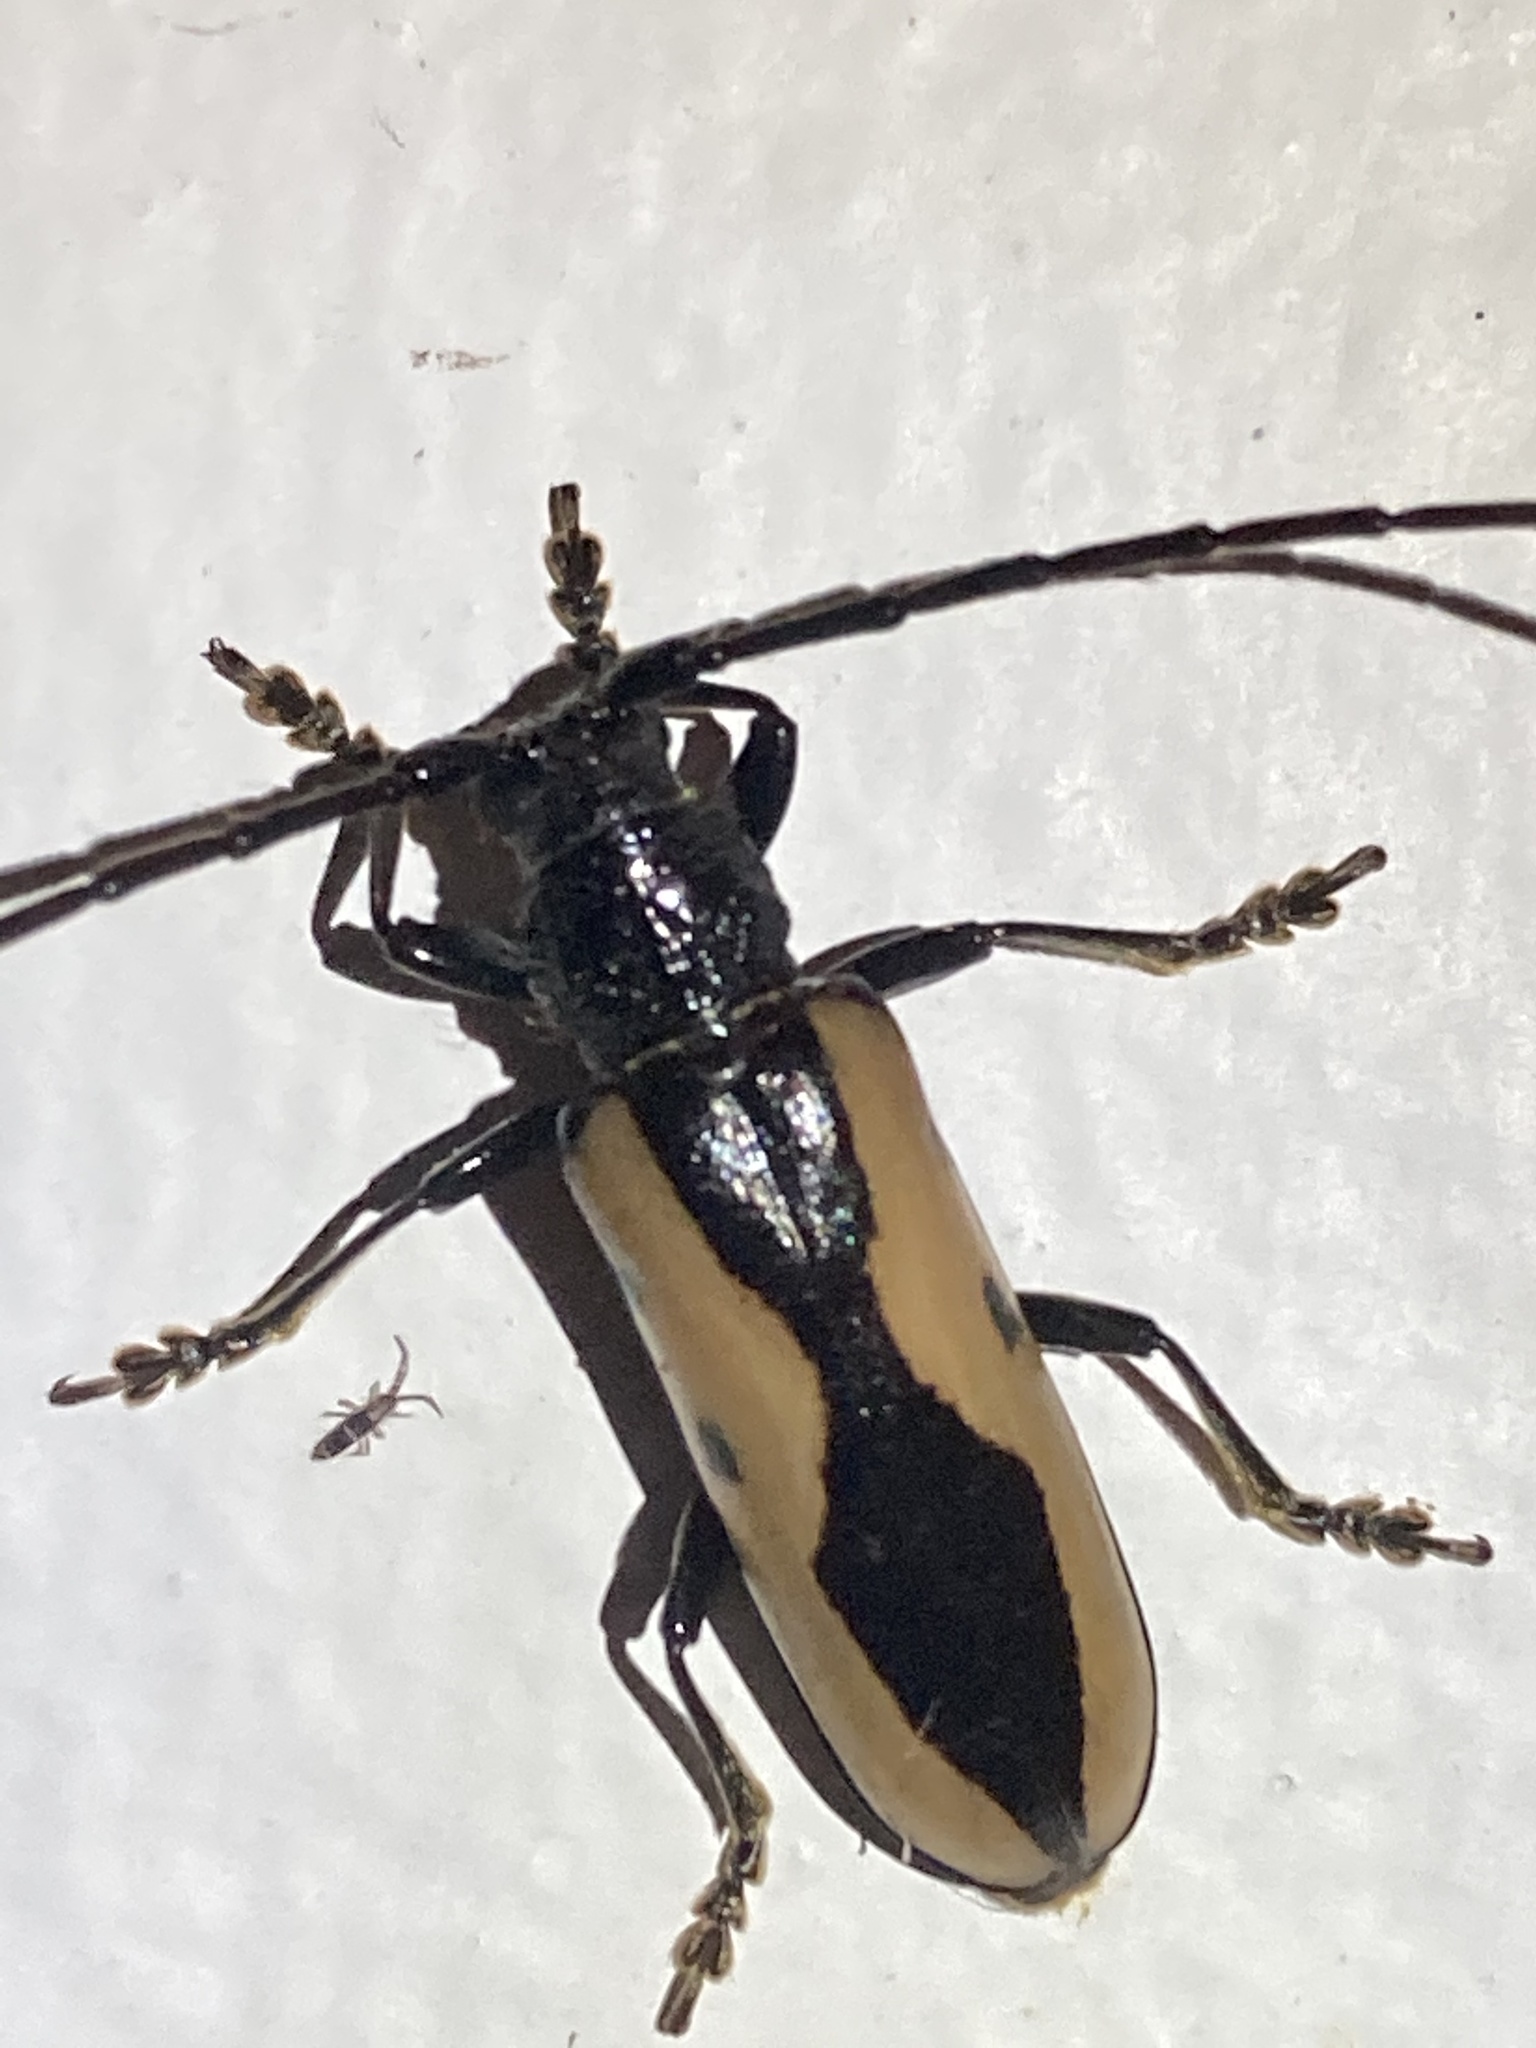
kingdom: Animalia
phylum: Arthropoda
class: Insecta
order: Coleoptera
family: Cerambycidae
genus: Poeciloxestia
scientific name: Poeciloxestia lanceolata
